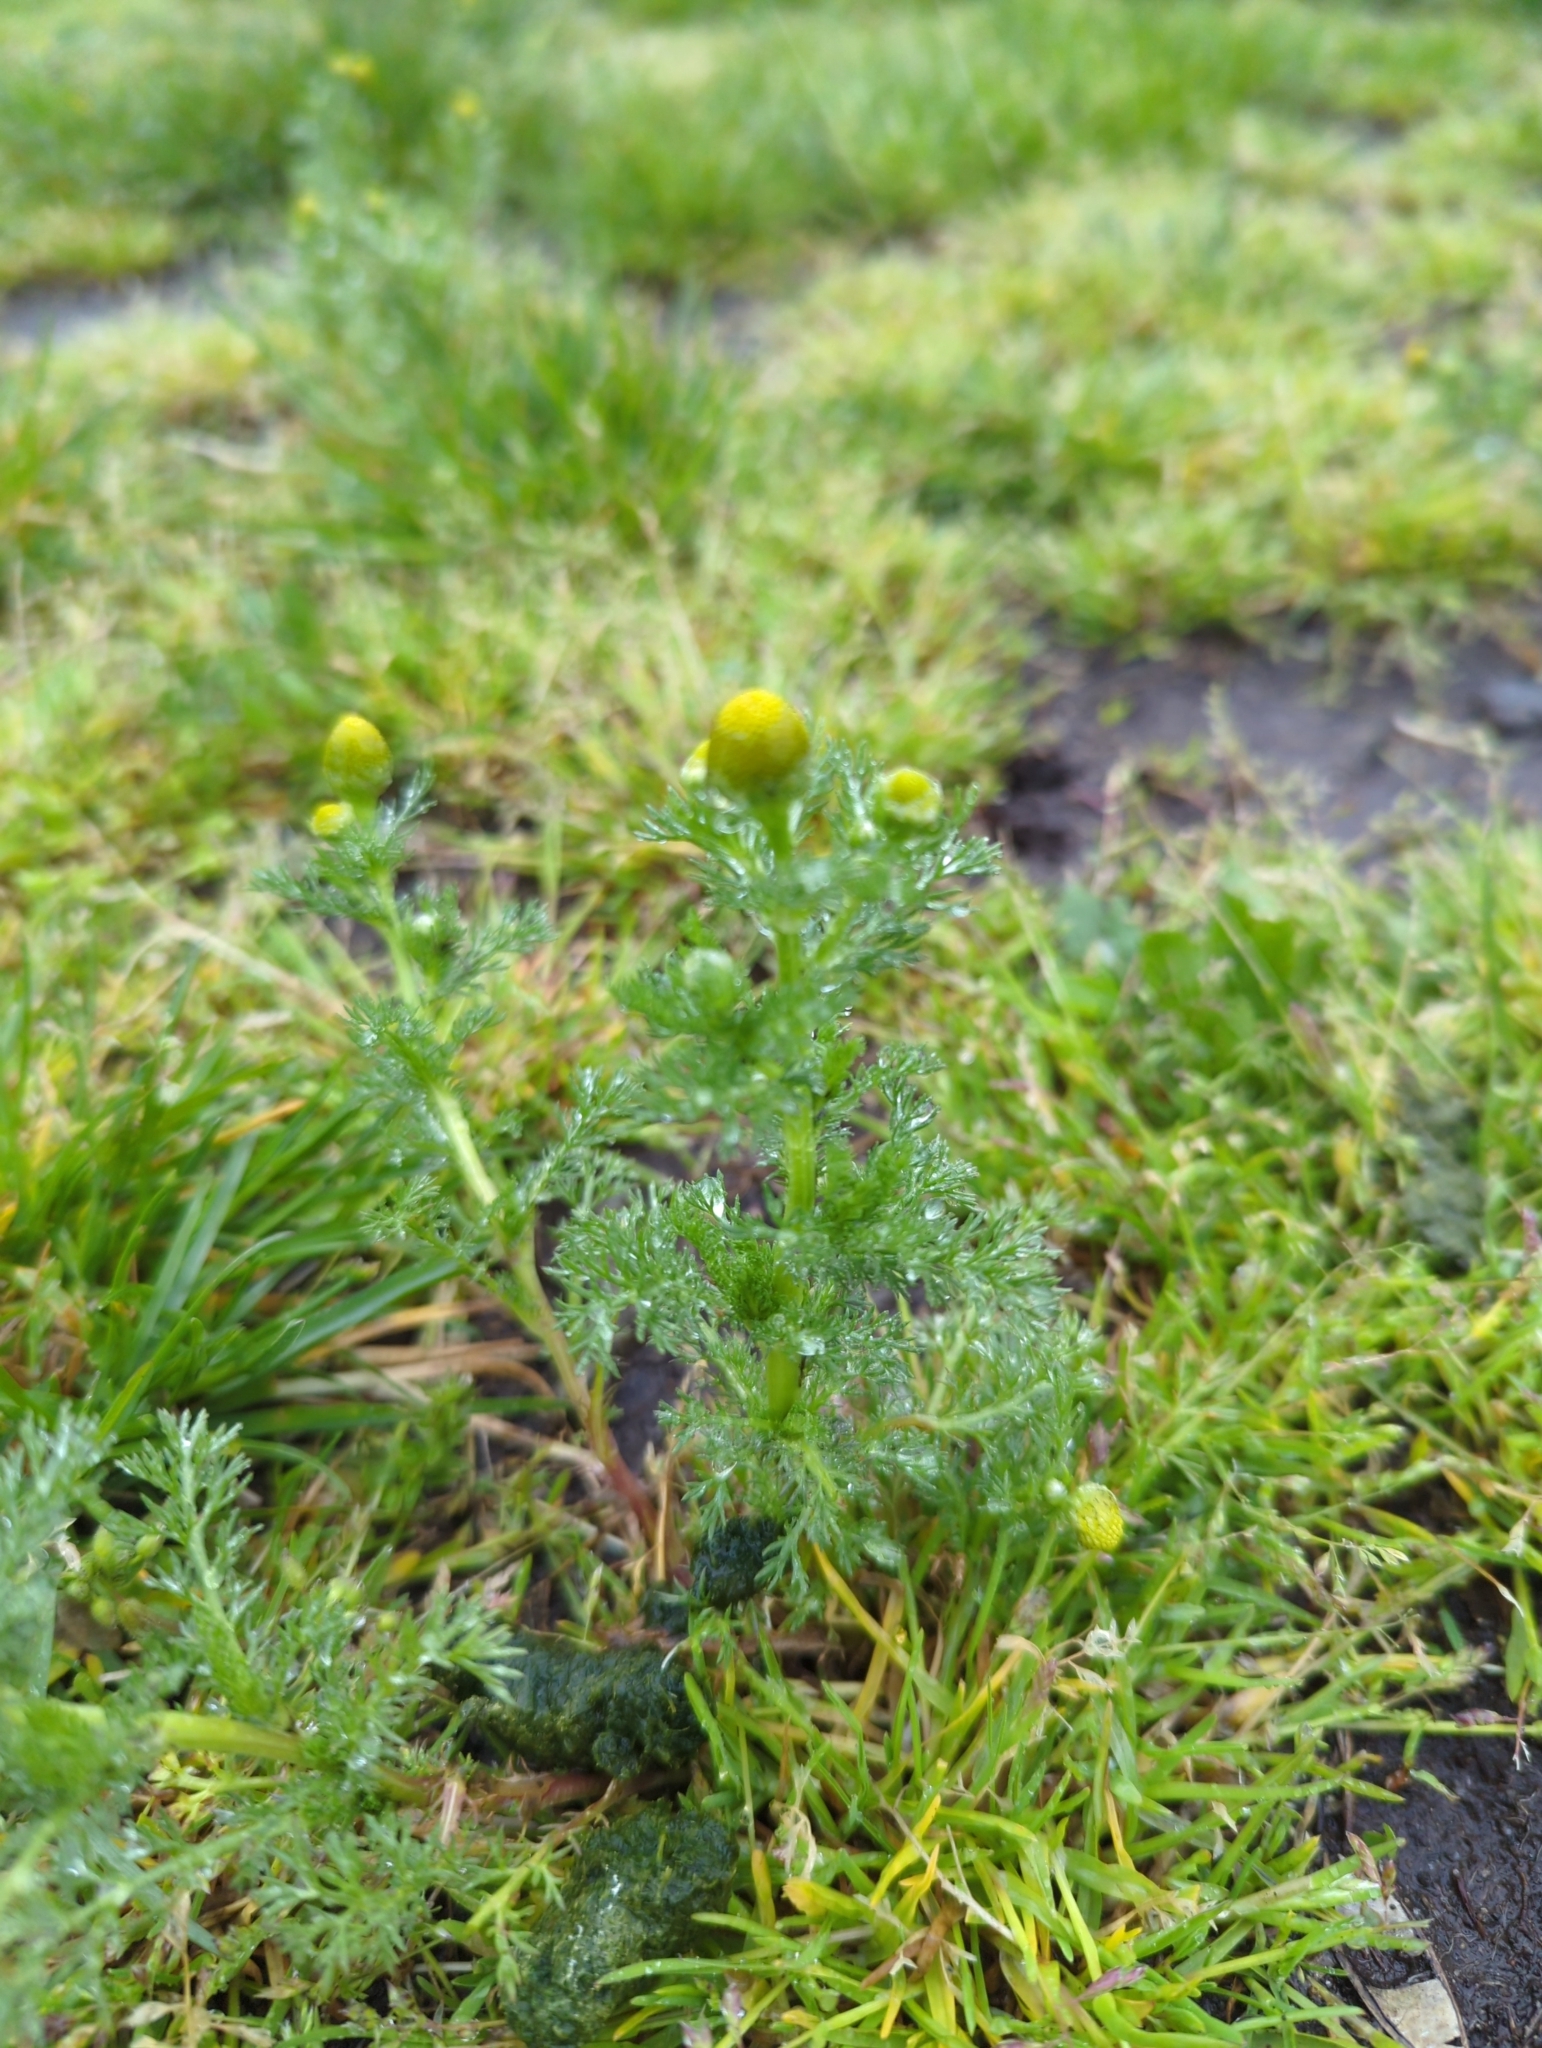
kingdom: Plantae
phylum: Tracheophyta
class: Magnoliopsida
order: Asterales
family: Asteraceae
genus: Matricaria
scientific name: Matricaria discoidea
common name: Disc mayweed
